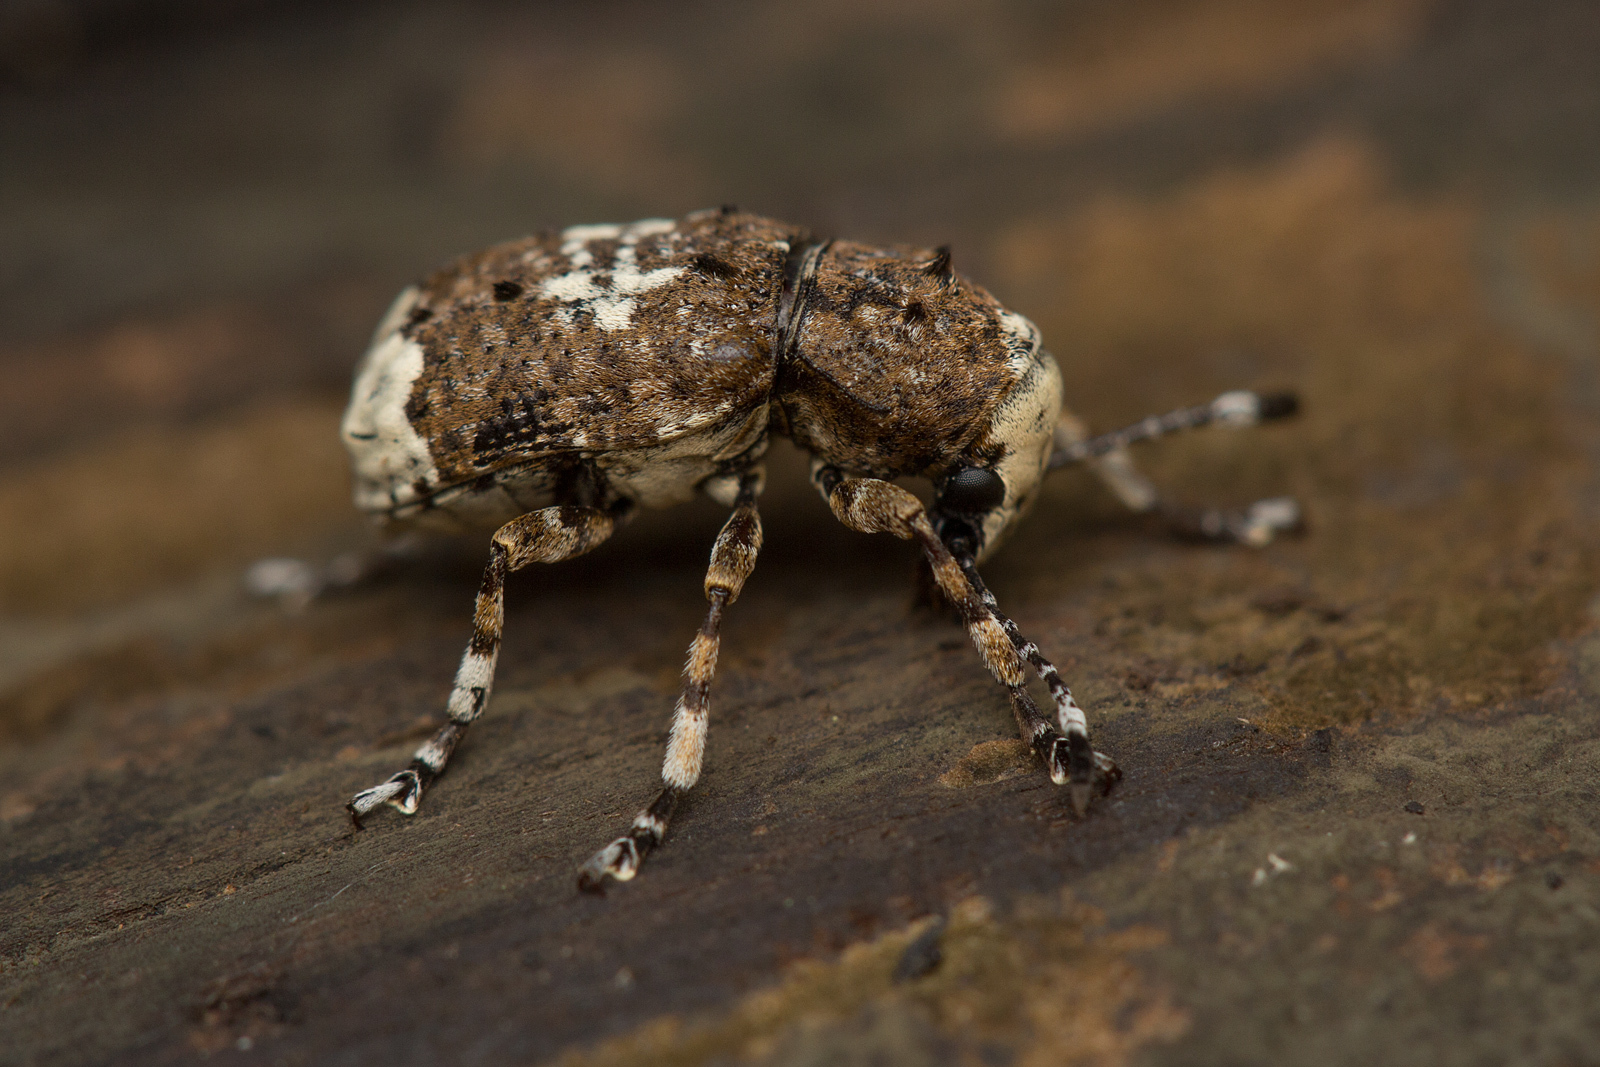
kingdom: Animalia
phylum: Arthropoda
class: Insecta
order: Coleoptera
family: Anthribidae
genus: Platystomos
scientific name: Platystomos albinus
